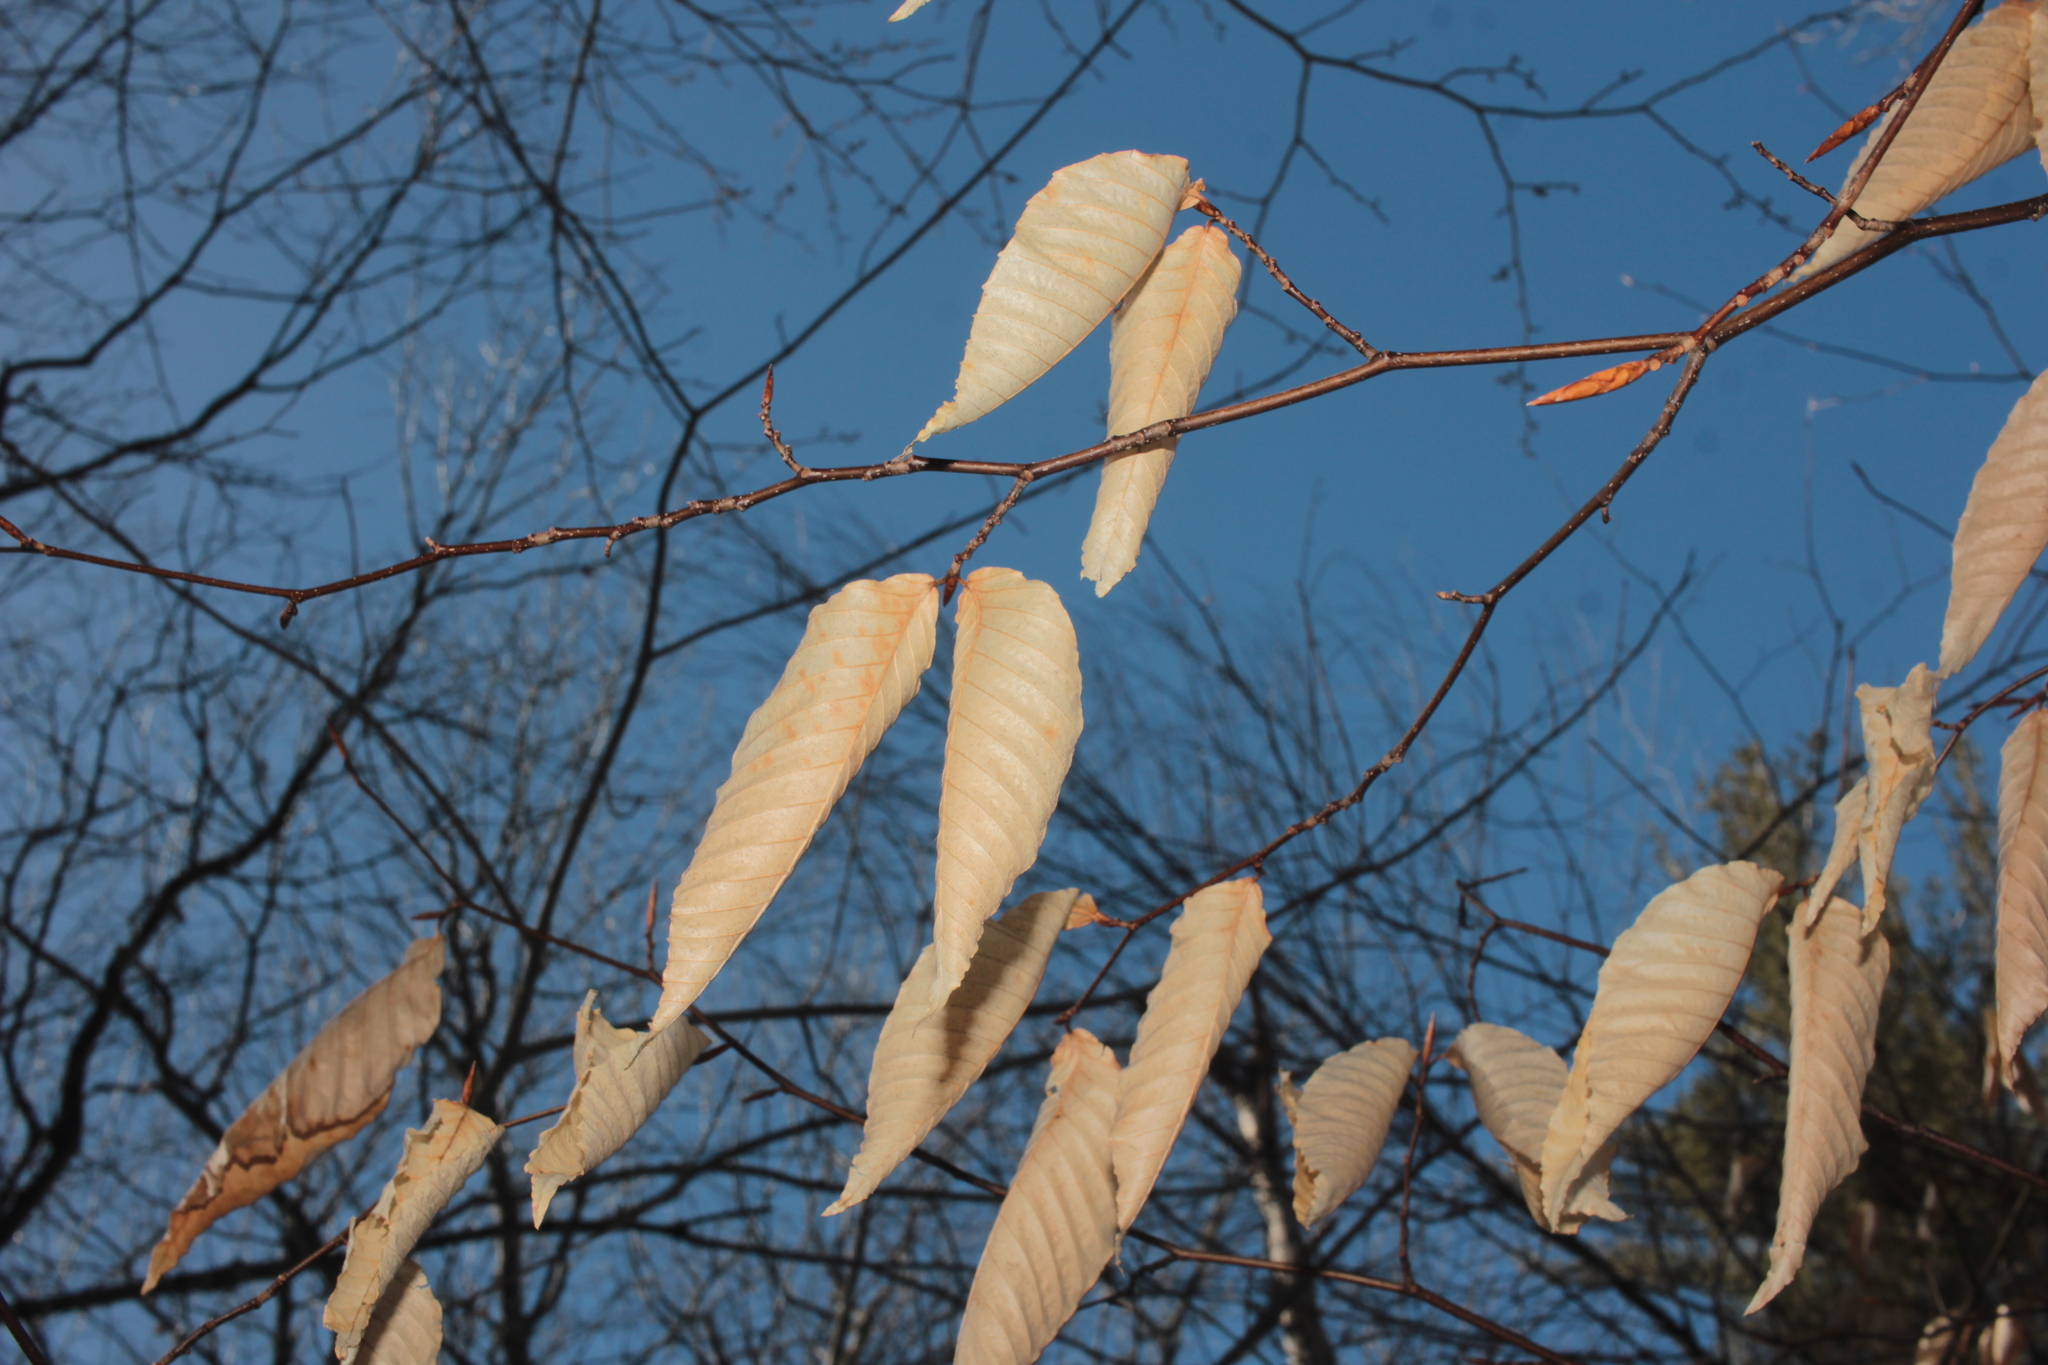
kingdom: Plantae
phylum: Tracheophyta
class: Magnoliopsida
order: Fagales
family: Fagaceae
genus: Fagus
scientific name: Fagus grandifolia
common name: American beech
